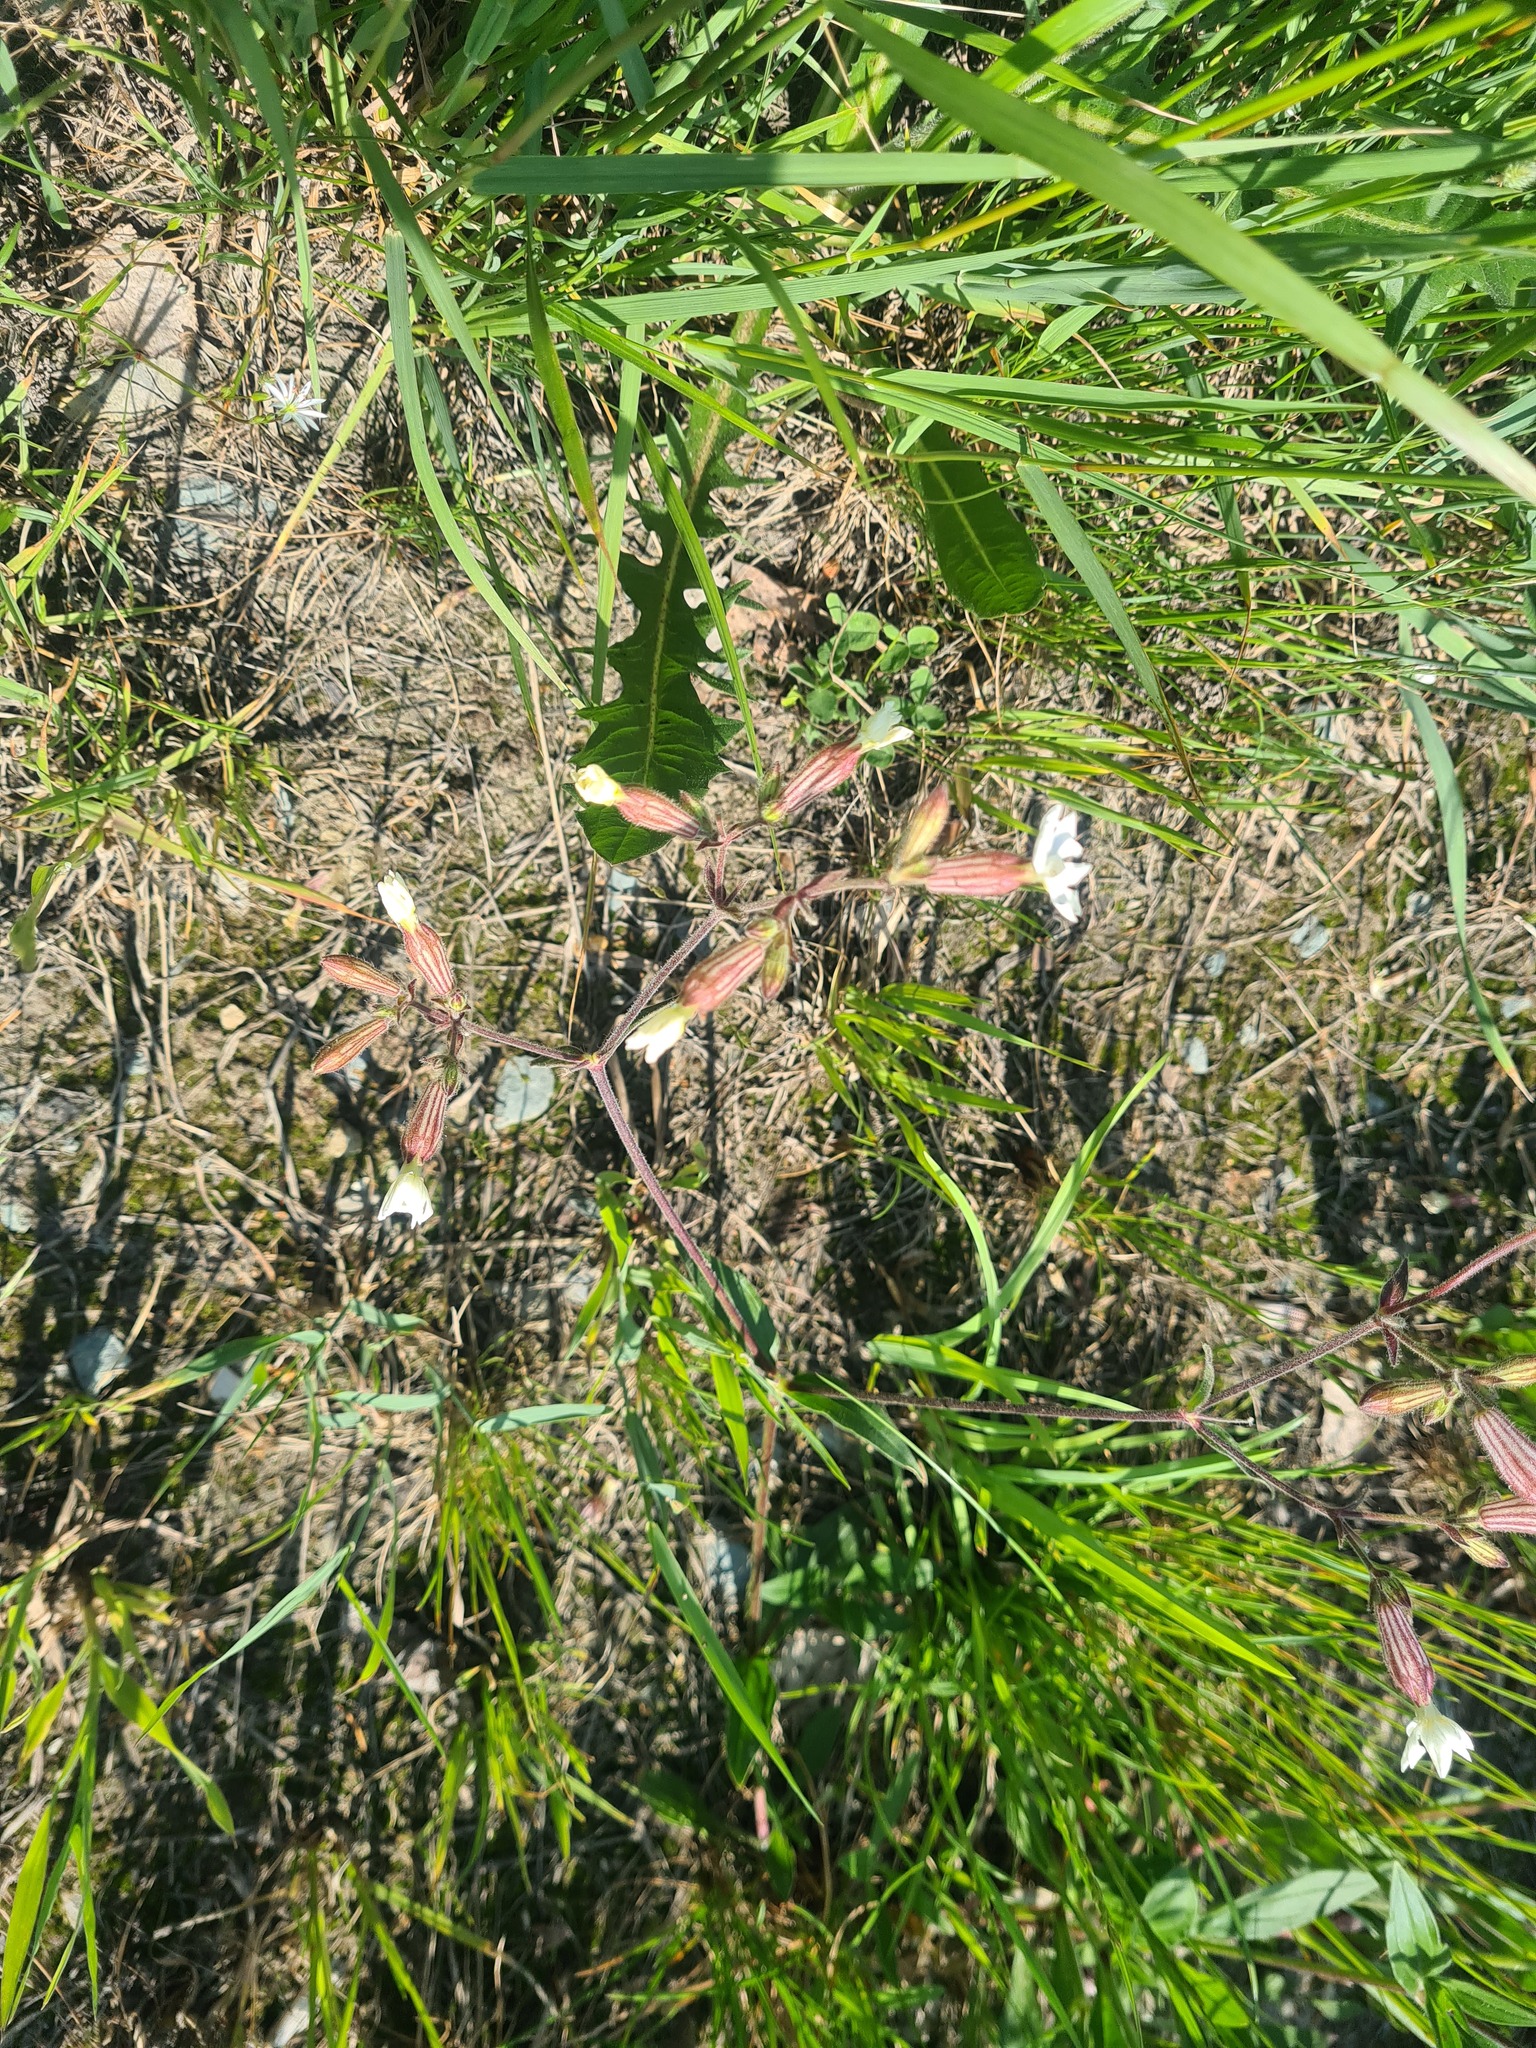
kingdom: Plantae
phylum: Tracheophyta
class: Magnoliopsida
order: Caryophyllales
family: Caryophyllaceae
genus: Silene
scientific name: Silene latifolia
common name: White campion
